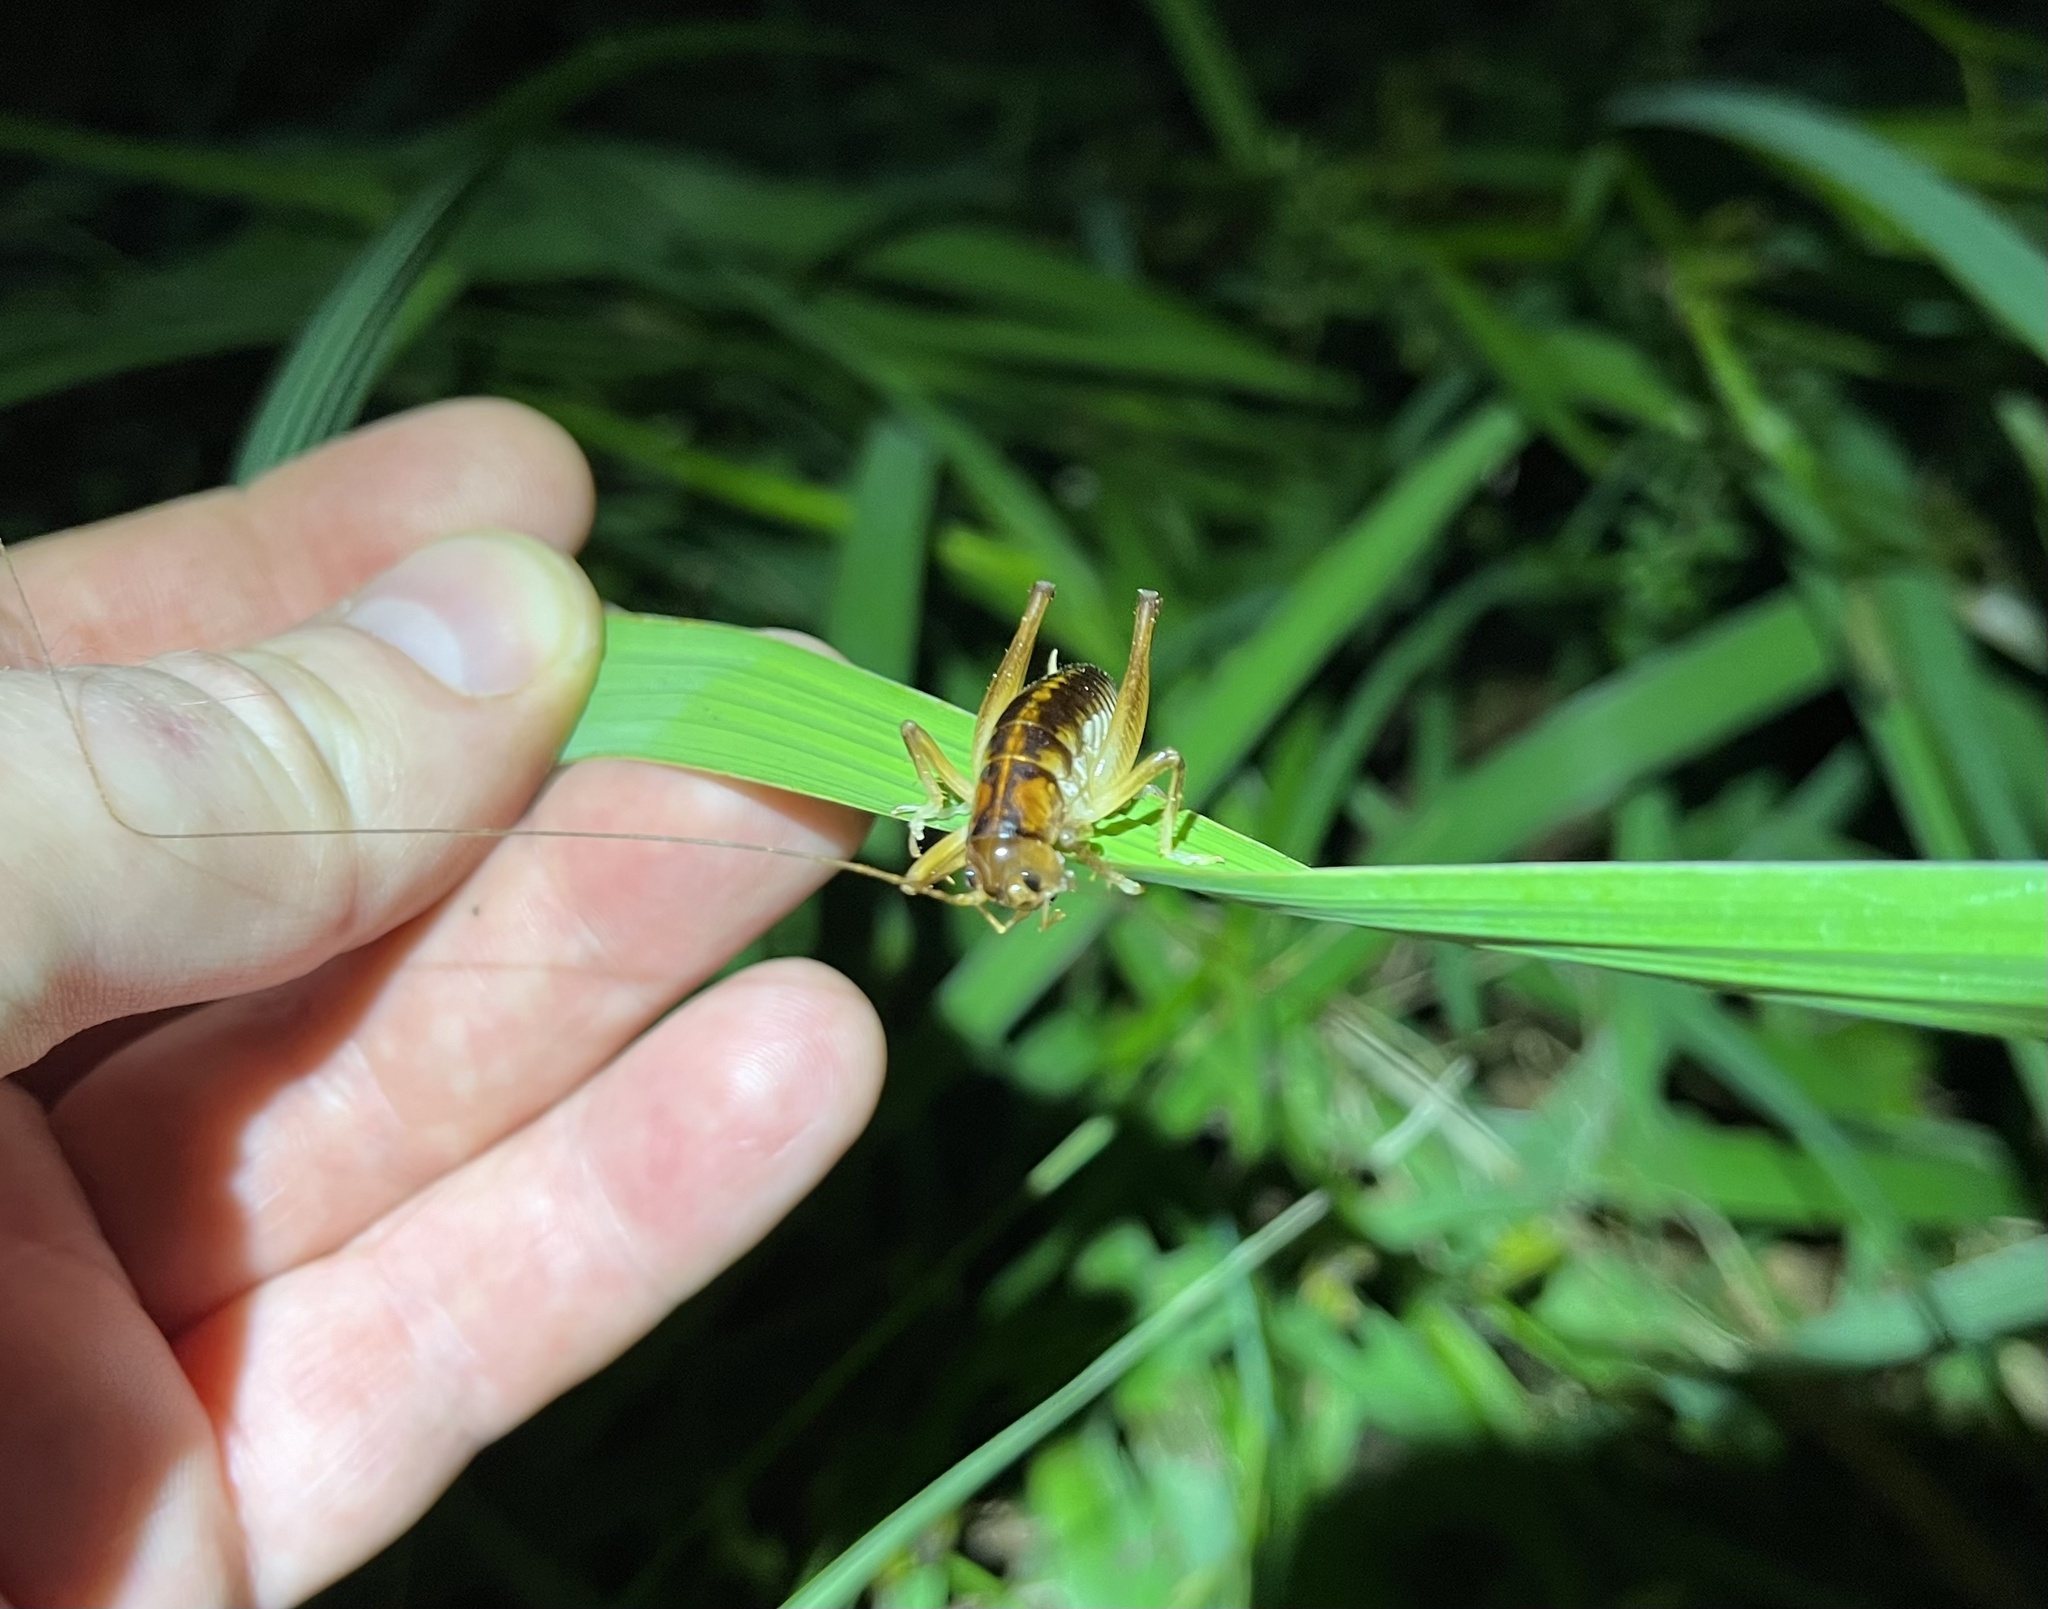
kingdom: Animalia
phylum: Arthropoda
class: Insecta
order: Orthoptera
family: Anostostomatidae
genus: Hemiandrus
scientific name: Hemiandrus pallitarsis
